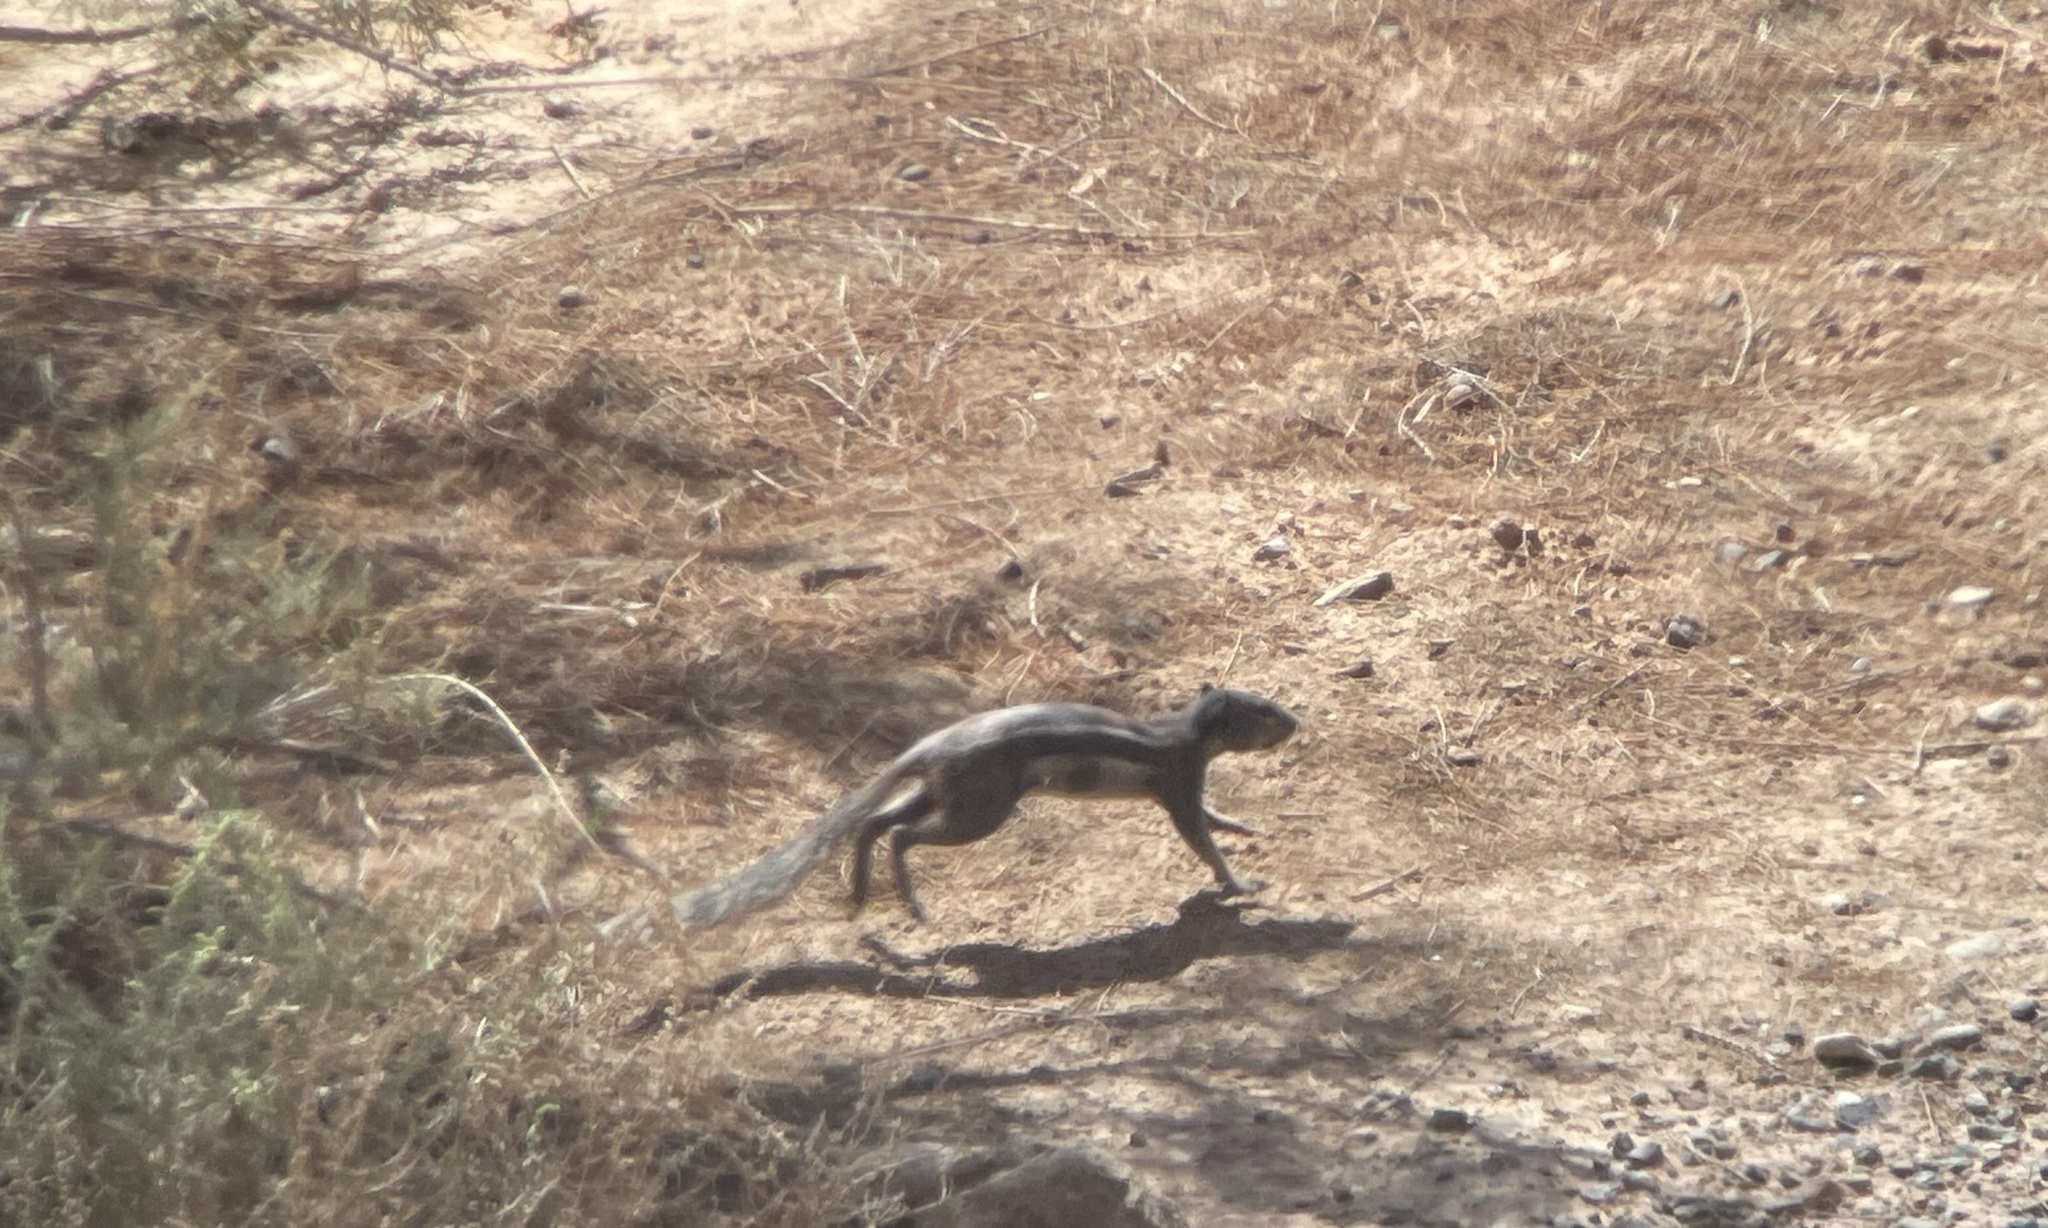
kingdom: Animalia
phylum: Chordata
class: Mammalia
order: Rodentia
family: Sciuridae
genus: Atlantoxerus
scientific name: Atlantoxerus getulus
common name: Barbary ground squirrel
